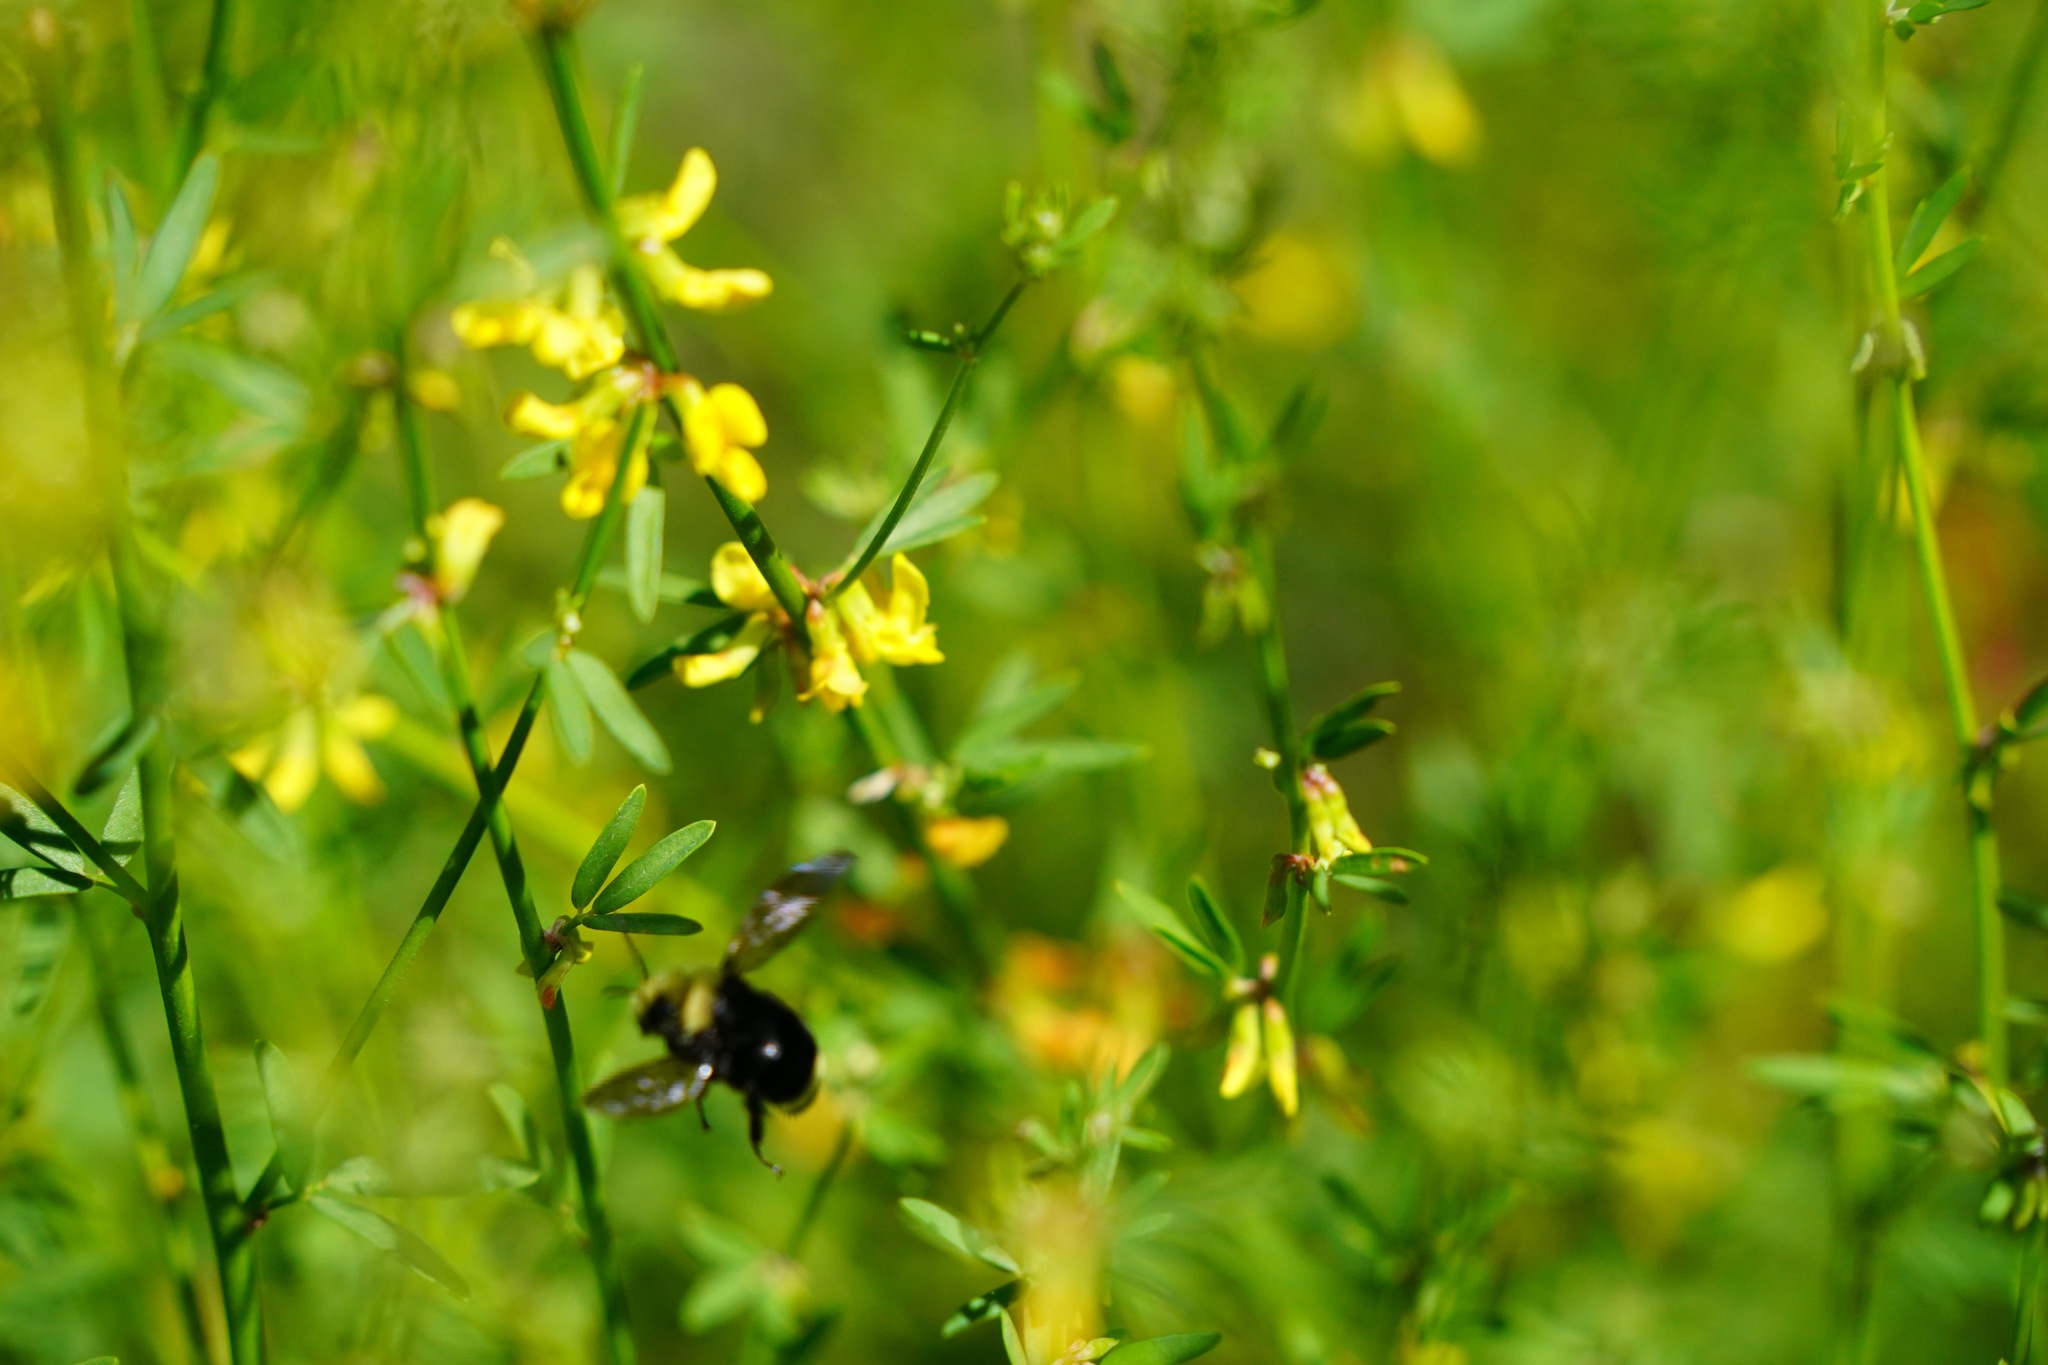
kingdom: Plantae
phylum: Tracheophyta
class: Magnoliopsida
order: Fabales
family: Fabaceae
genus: Acmispon
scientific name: Acmispon glaber
